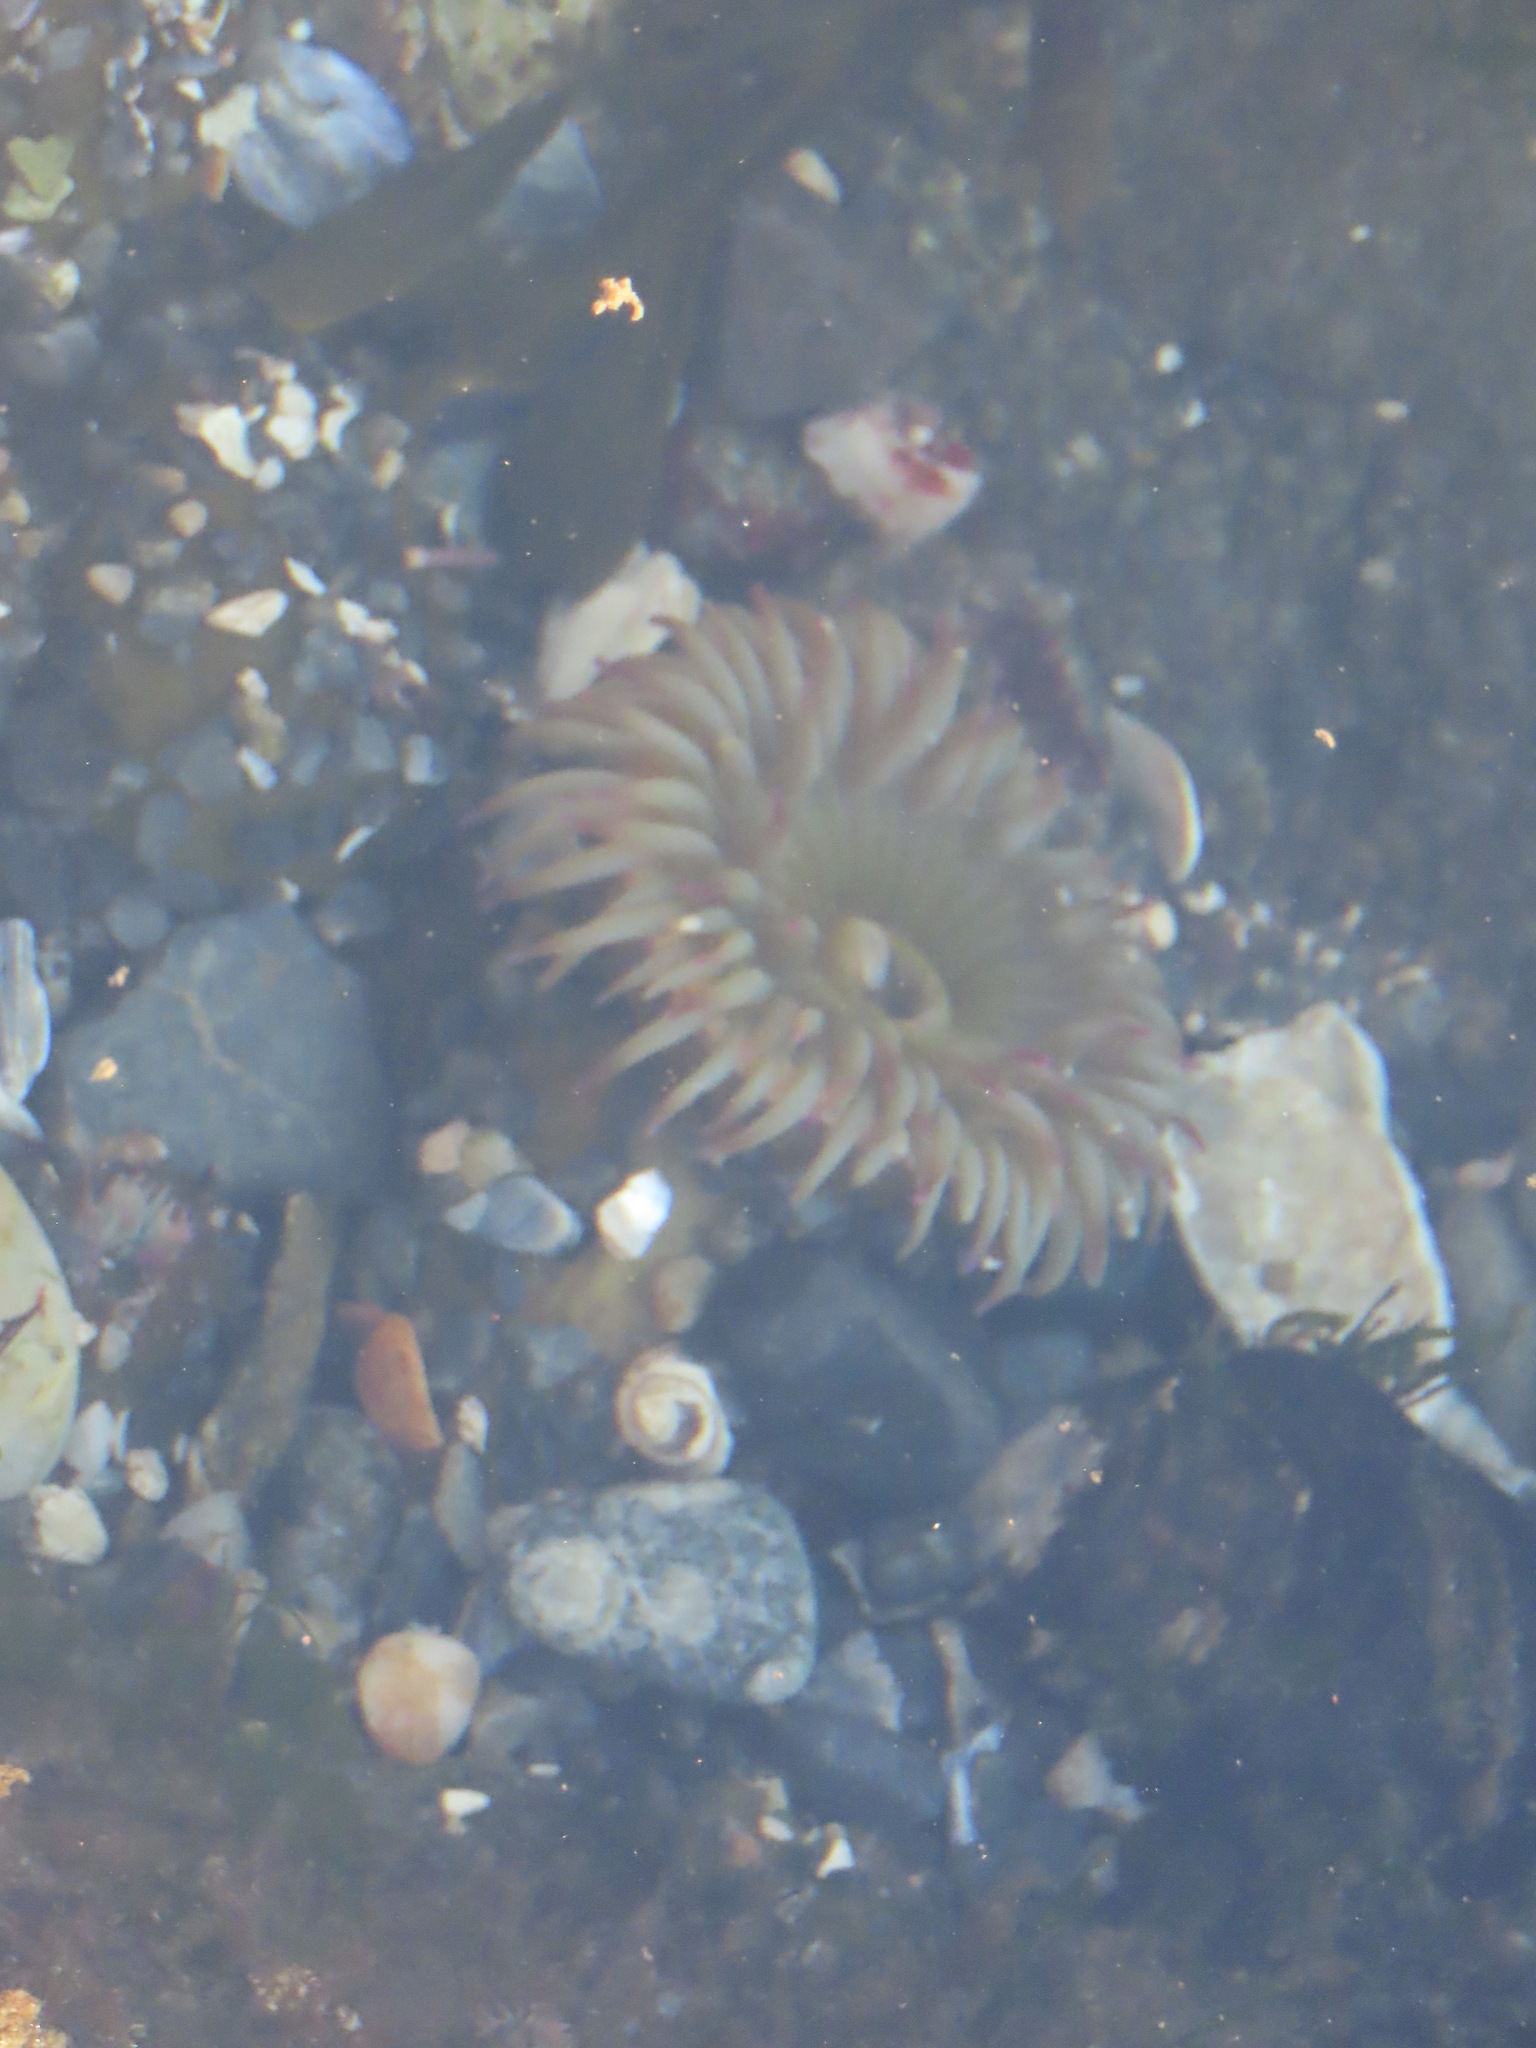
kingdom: Animalia
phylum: Cnidaria
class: Anthozoa
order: Actiniaria
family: Actiniidae
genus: Anthopleura
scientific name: Anthopleura elegantissima
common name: Clonal anemone
